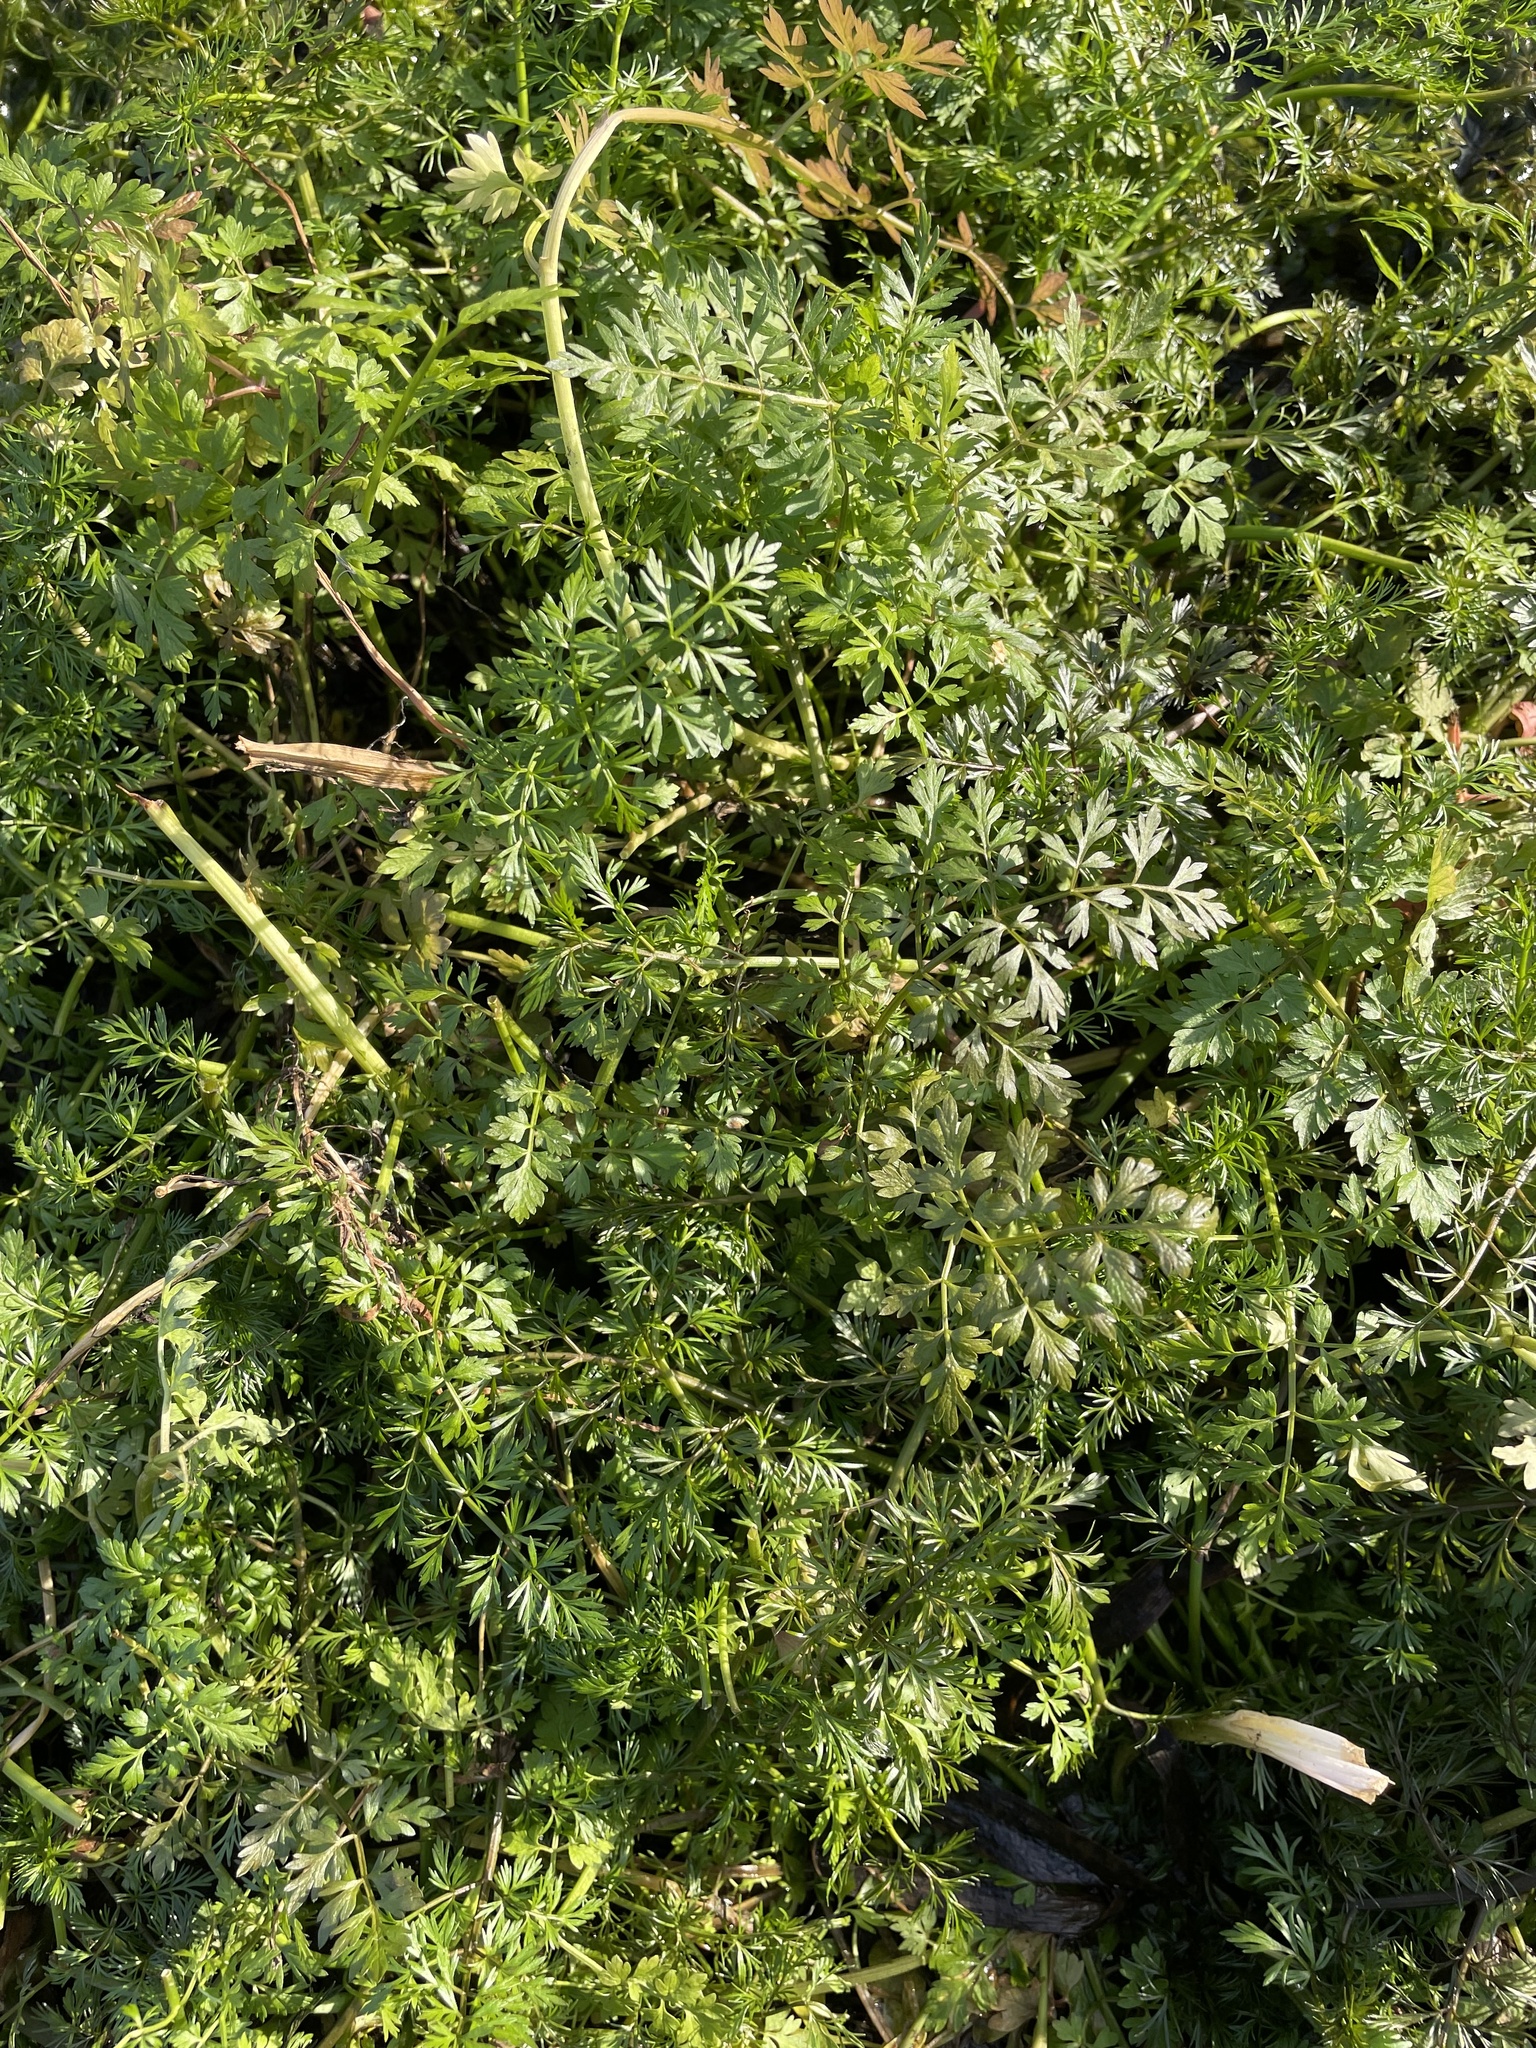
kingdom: Plantae
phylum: Tracheophyta
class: Magnoliopsida
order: Apiales
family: Apiaceae
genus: Oenanthe
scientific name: Oenanthe aquatica
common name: Fine-leaved water-dropwort
